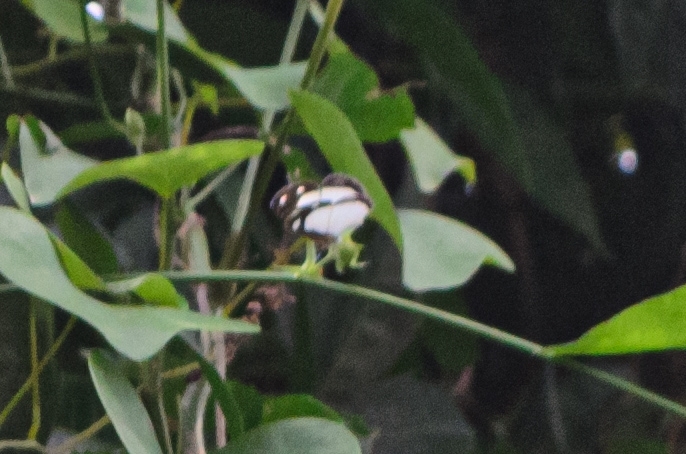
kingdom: Animalia
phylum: Arthropoda
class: Insecta
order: Lepidoptera
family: Nymphalidae
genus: Dynamine
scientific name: Dynamine agacles
